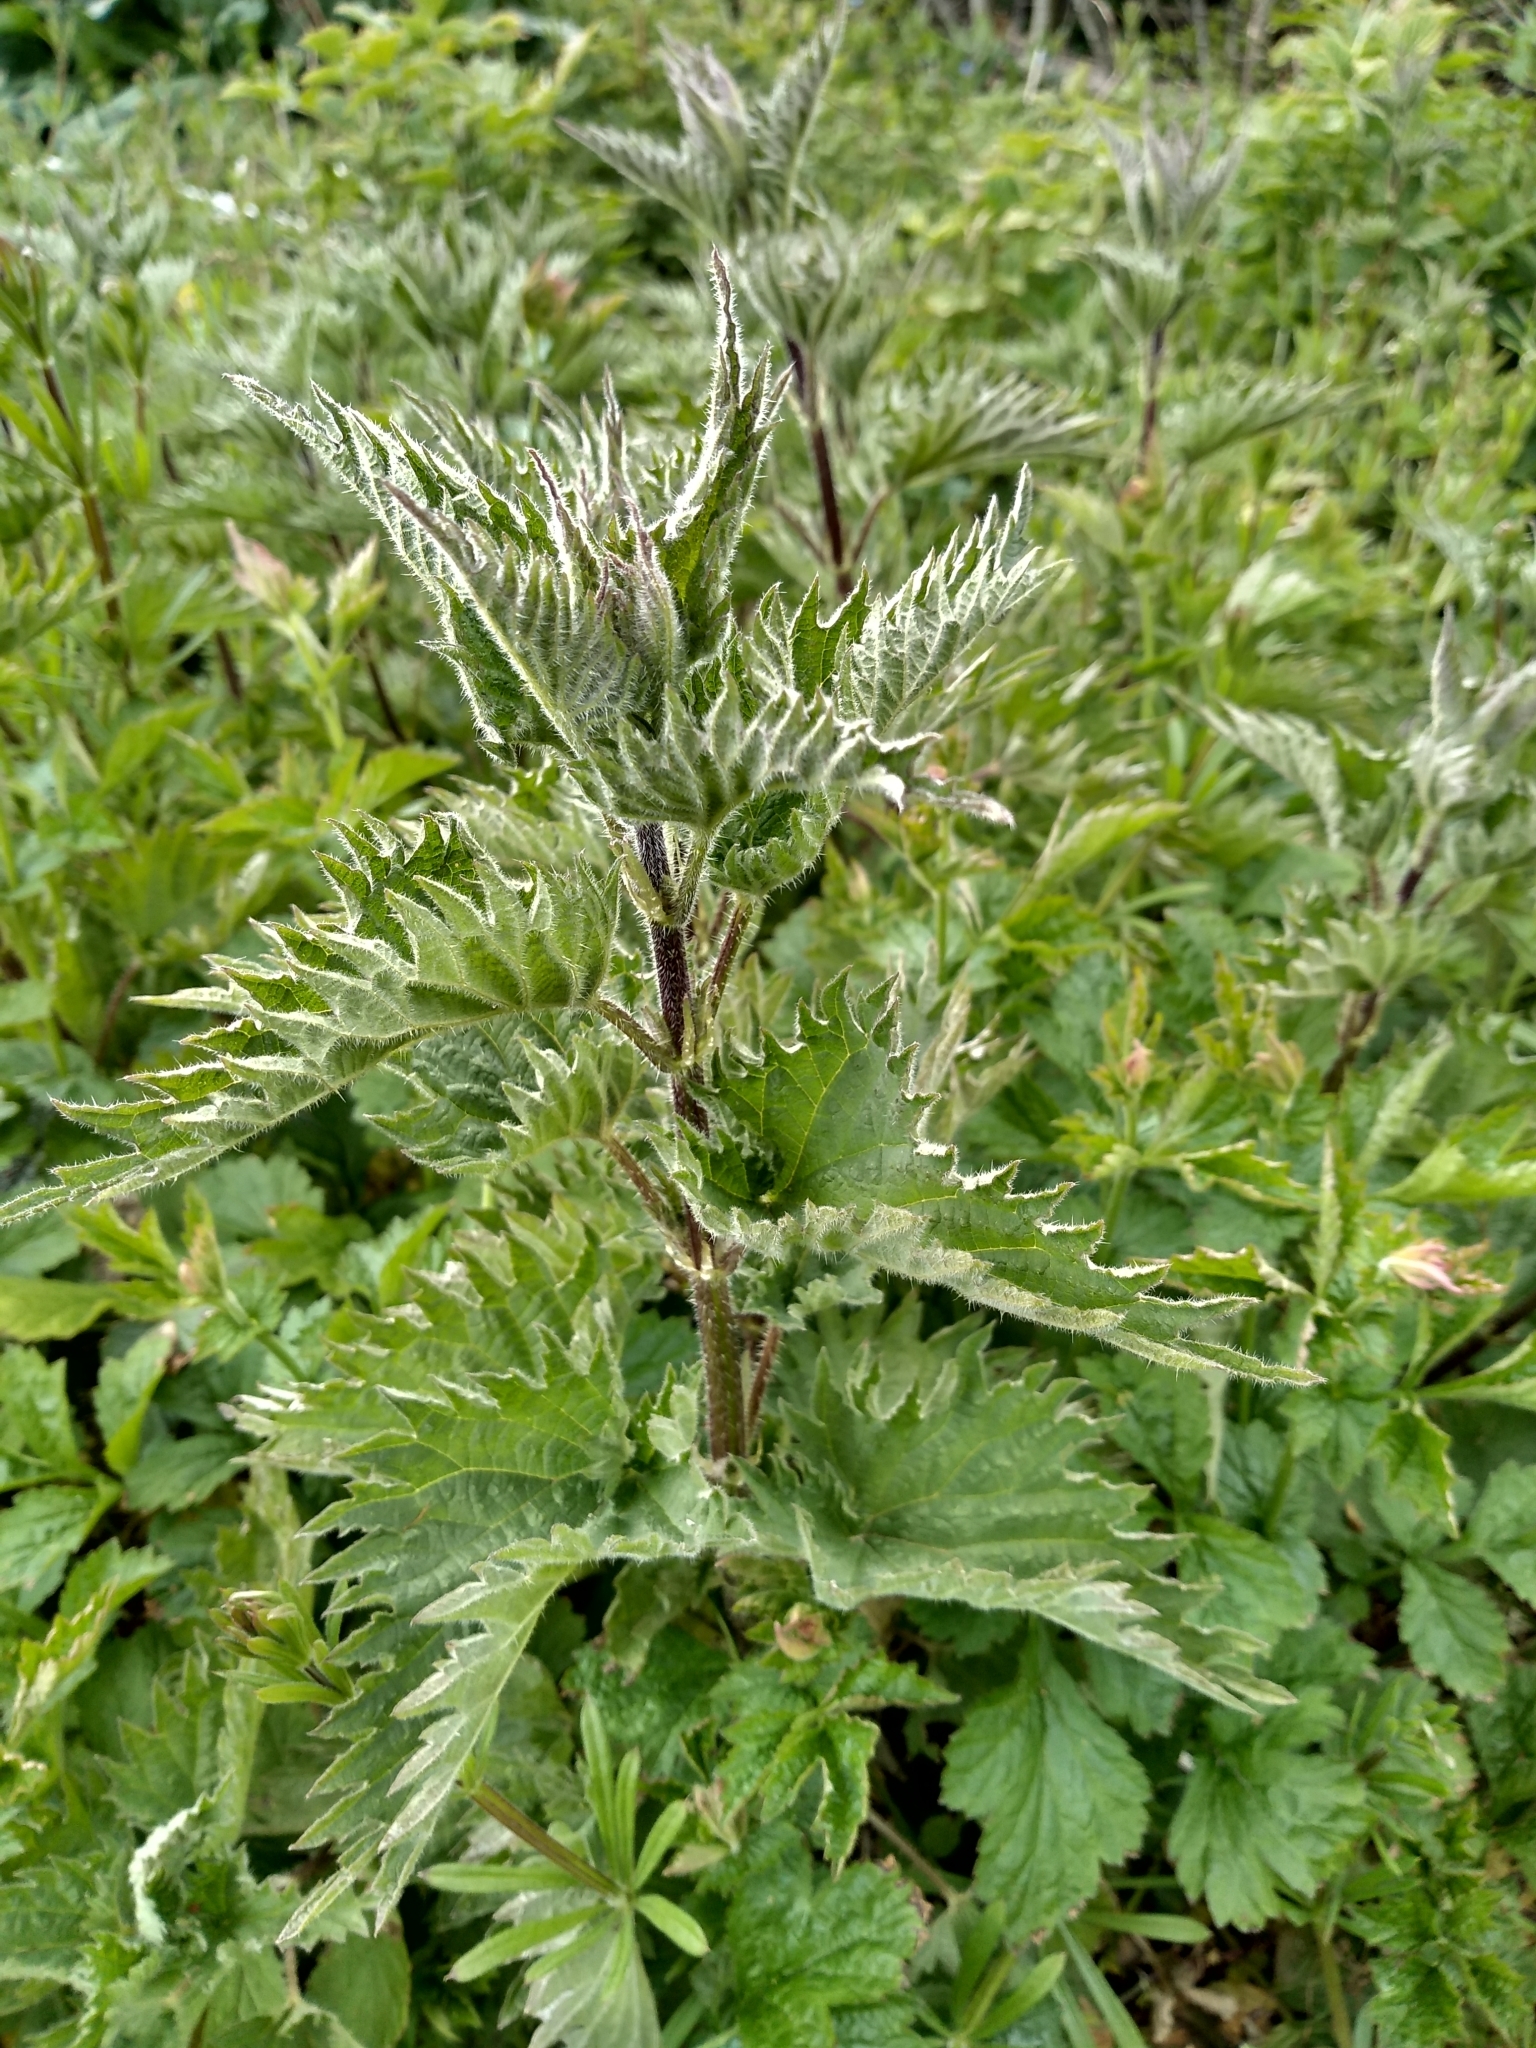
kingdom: Plantae
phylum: Tracheophyta
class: Magnoliopsida
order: Rosales
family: Urticaceae
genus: Urtica
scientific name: Urtica dioica
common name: Common nettle
